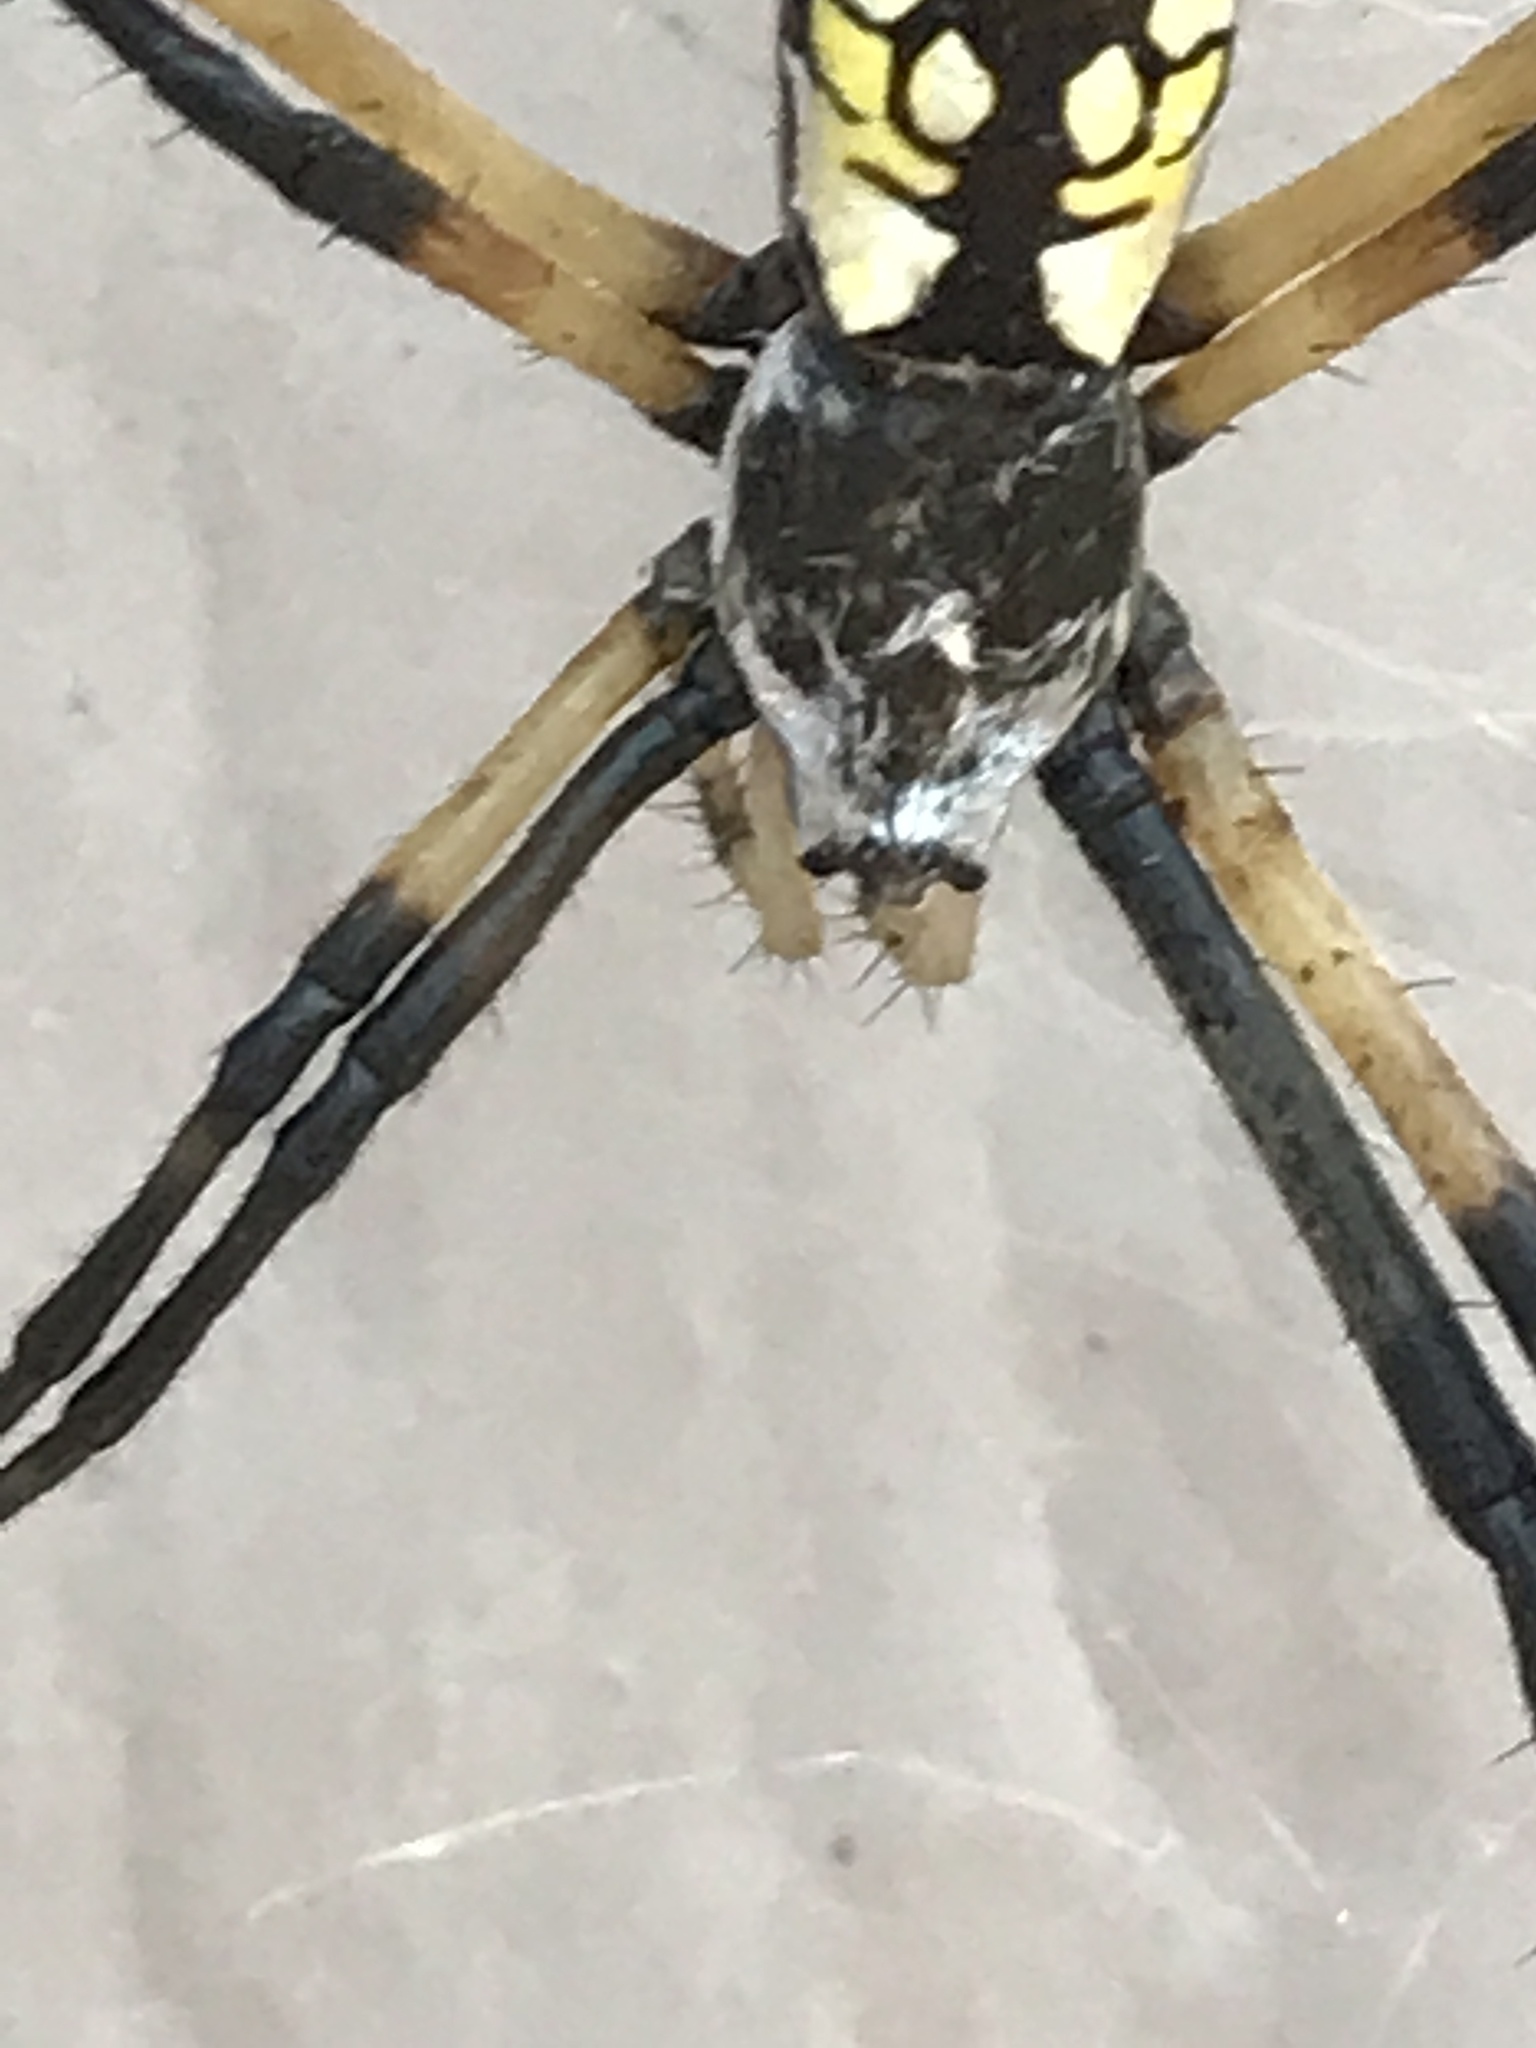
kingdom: Animalia
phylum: Arthropoda
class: Arachnida
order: Araneae
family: Araneidae
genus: Argiope
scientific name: Argiope aurantia
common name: Orb weavers
